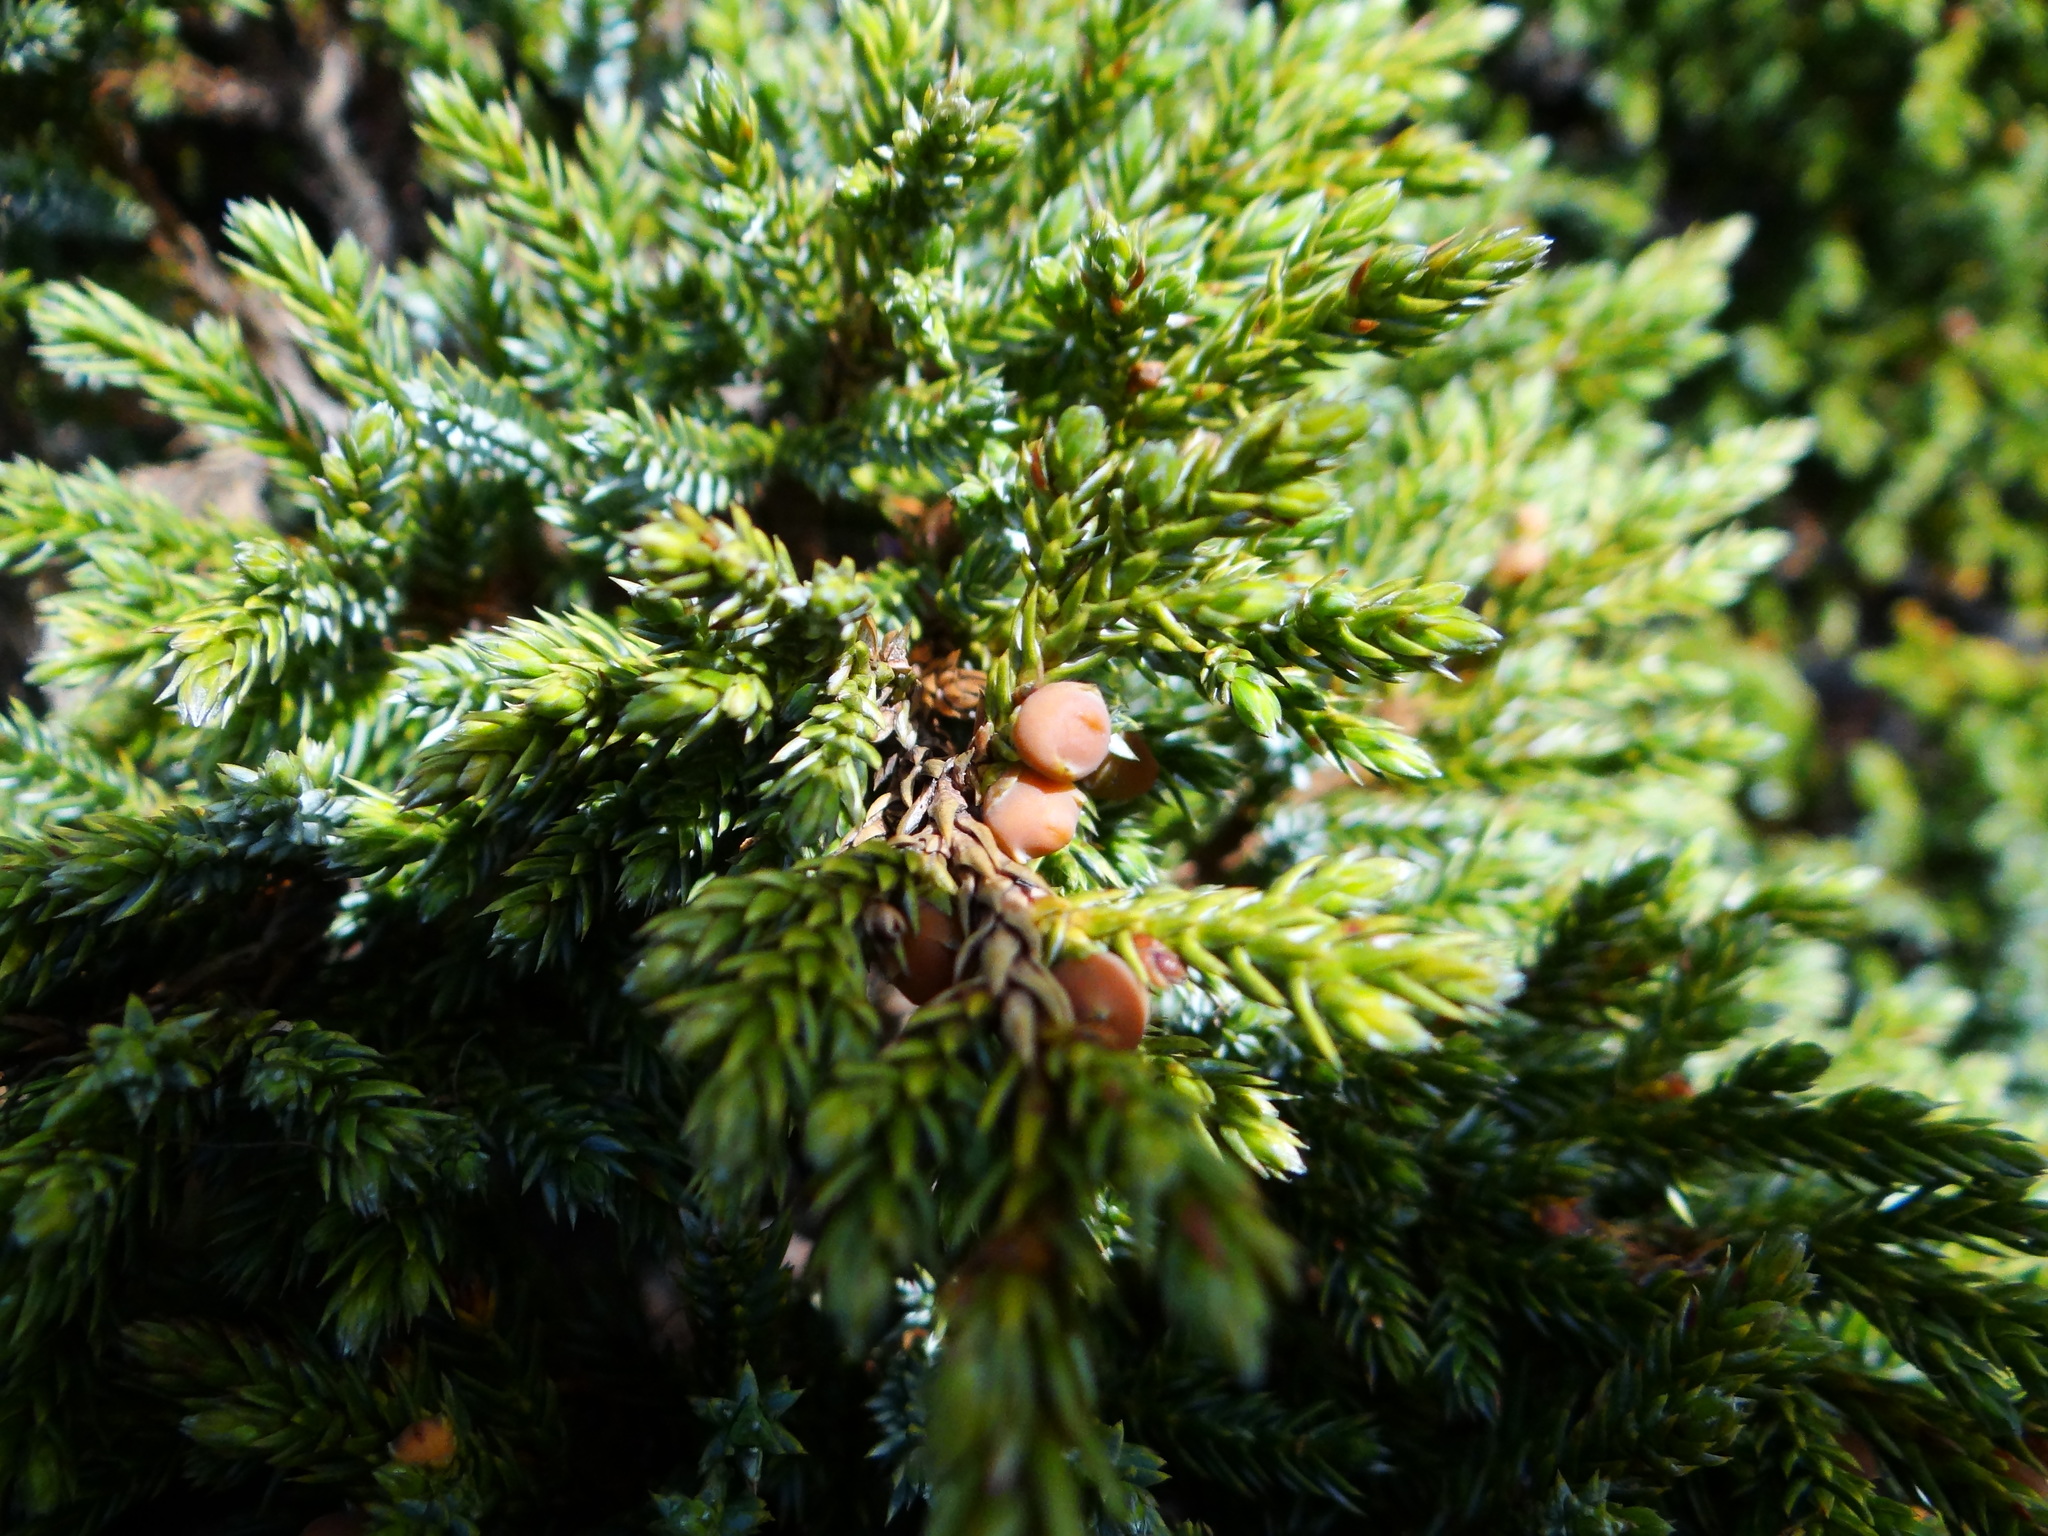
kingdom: Plantae
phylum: Tracheophyta
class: Pinopsida
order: Pinales
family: Cupressaceae
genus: Juniperus
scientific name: Juniperus squamata
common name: Flaky juniper
